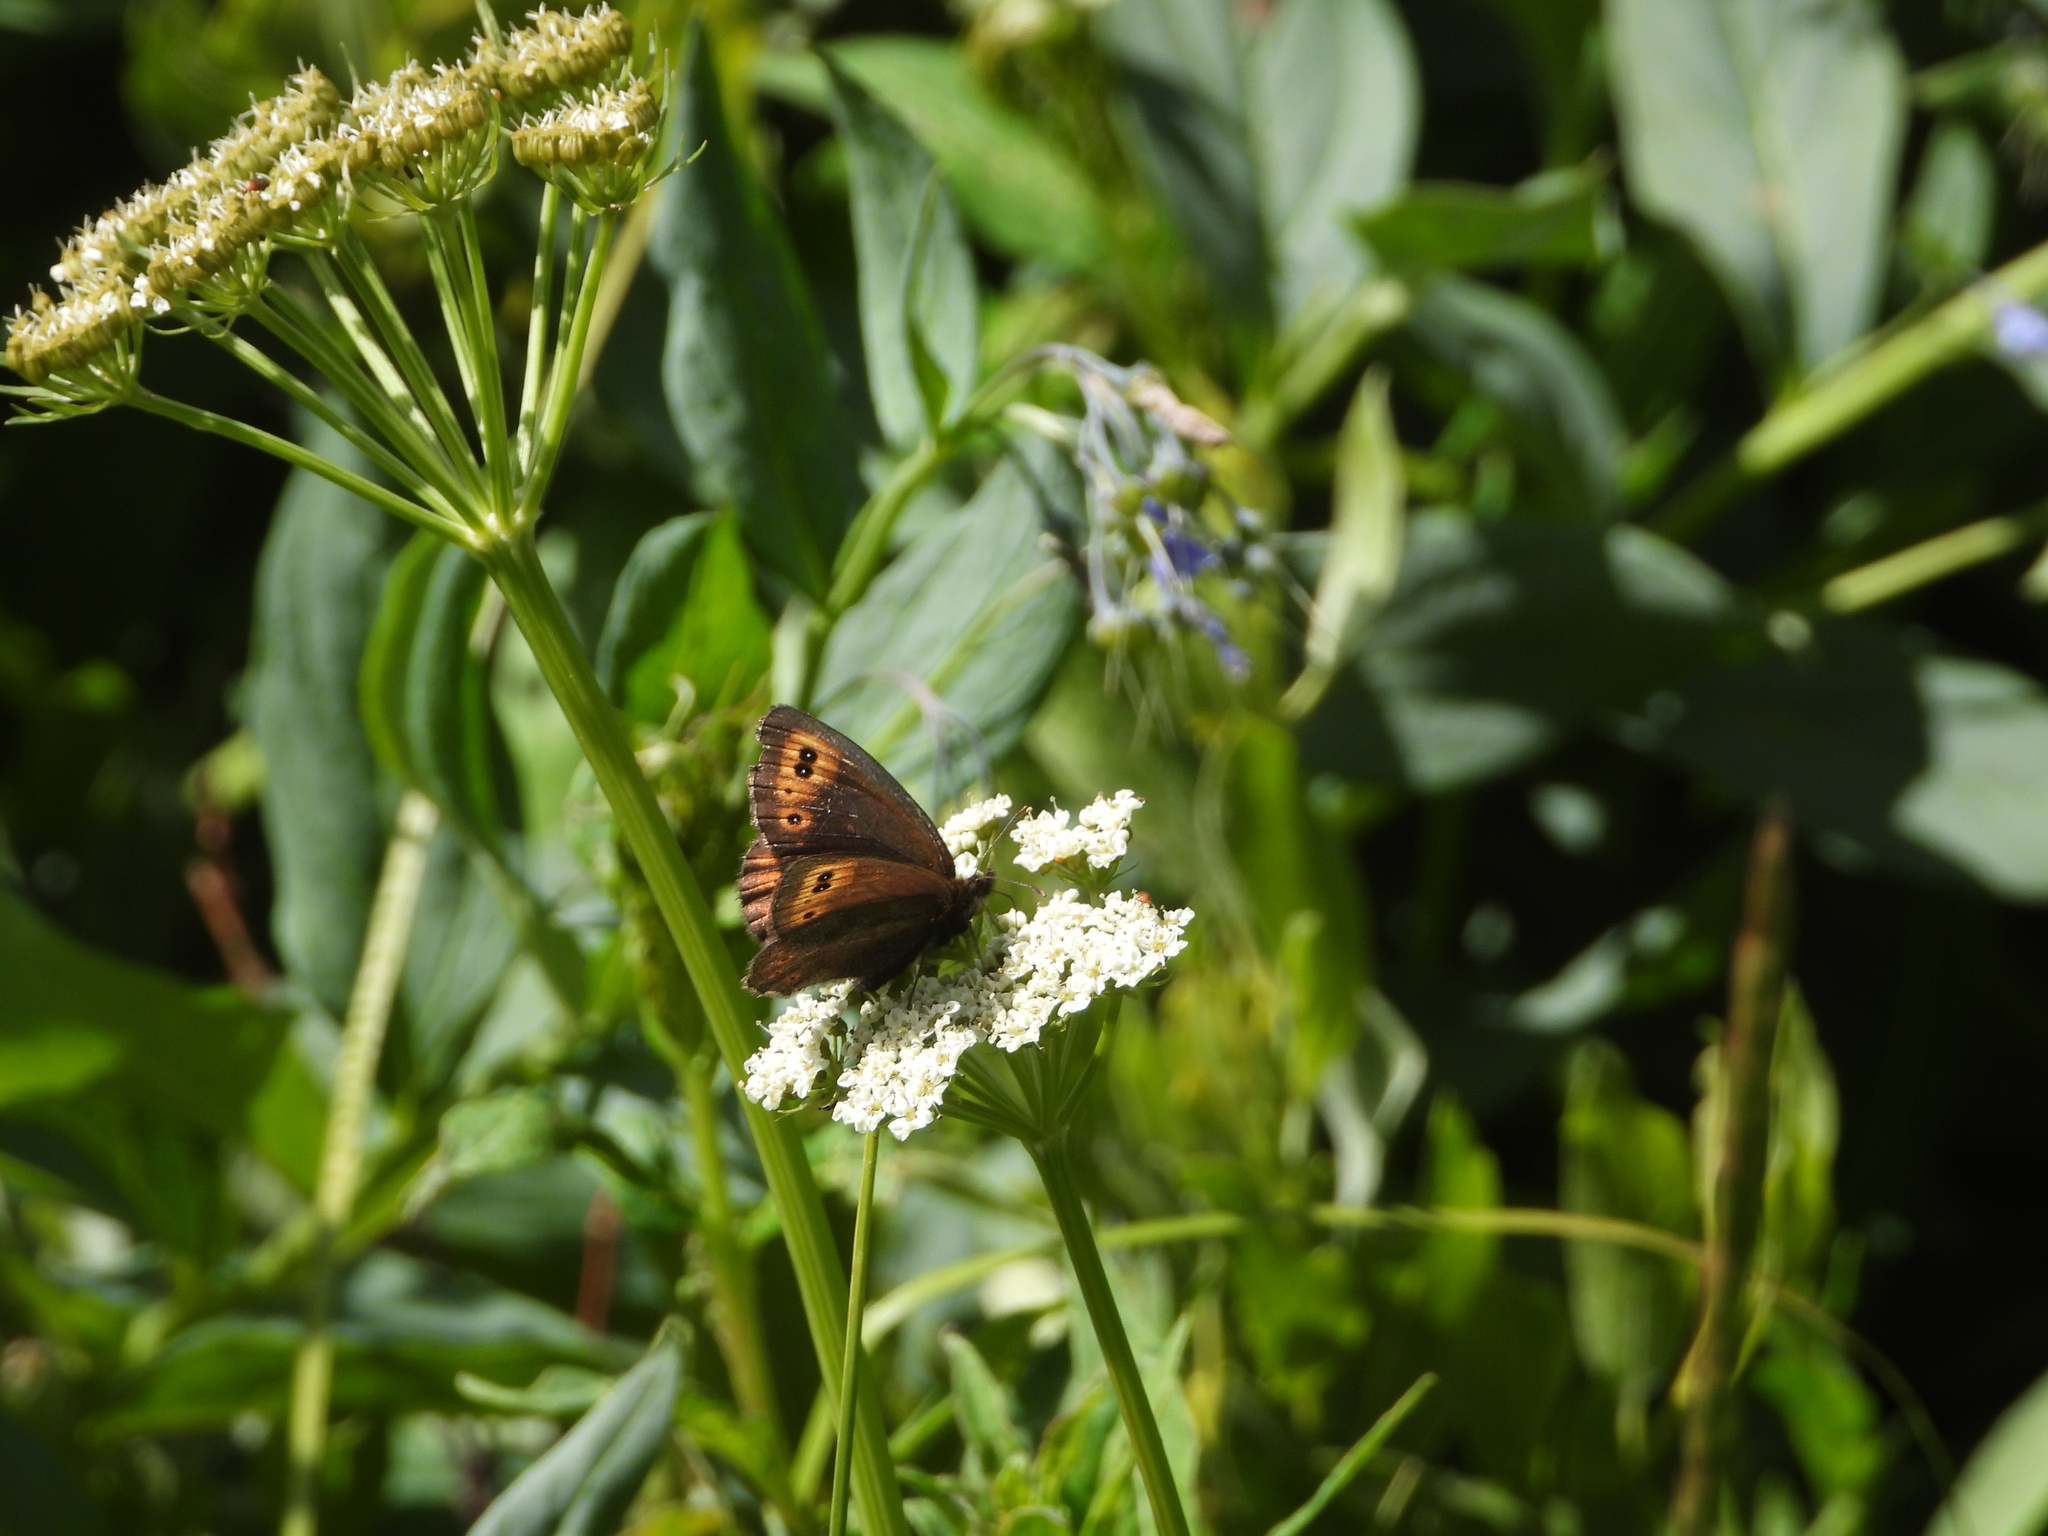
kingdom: Animalia
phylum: Arthropoda
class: Insecta
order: Lepidoptera
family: Nymphalidae
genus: Erebia
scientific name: Erebia epipsodea
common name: Common alpine
